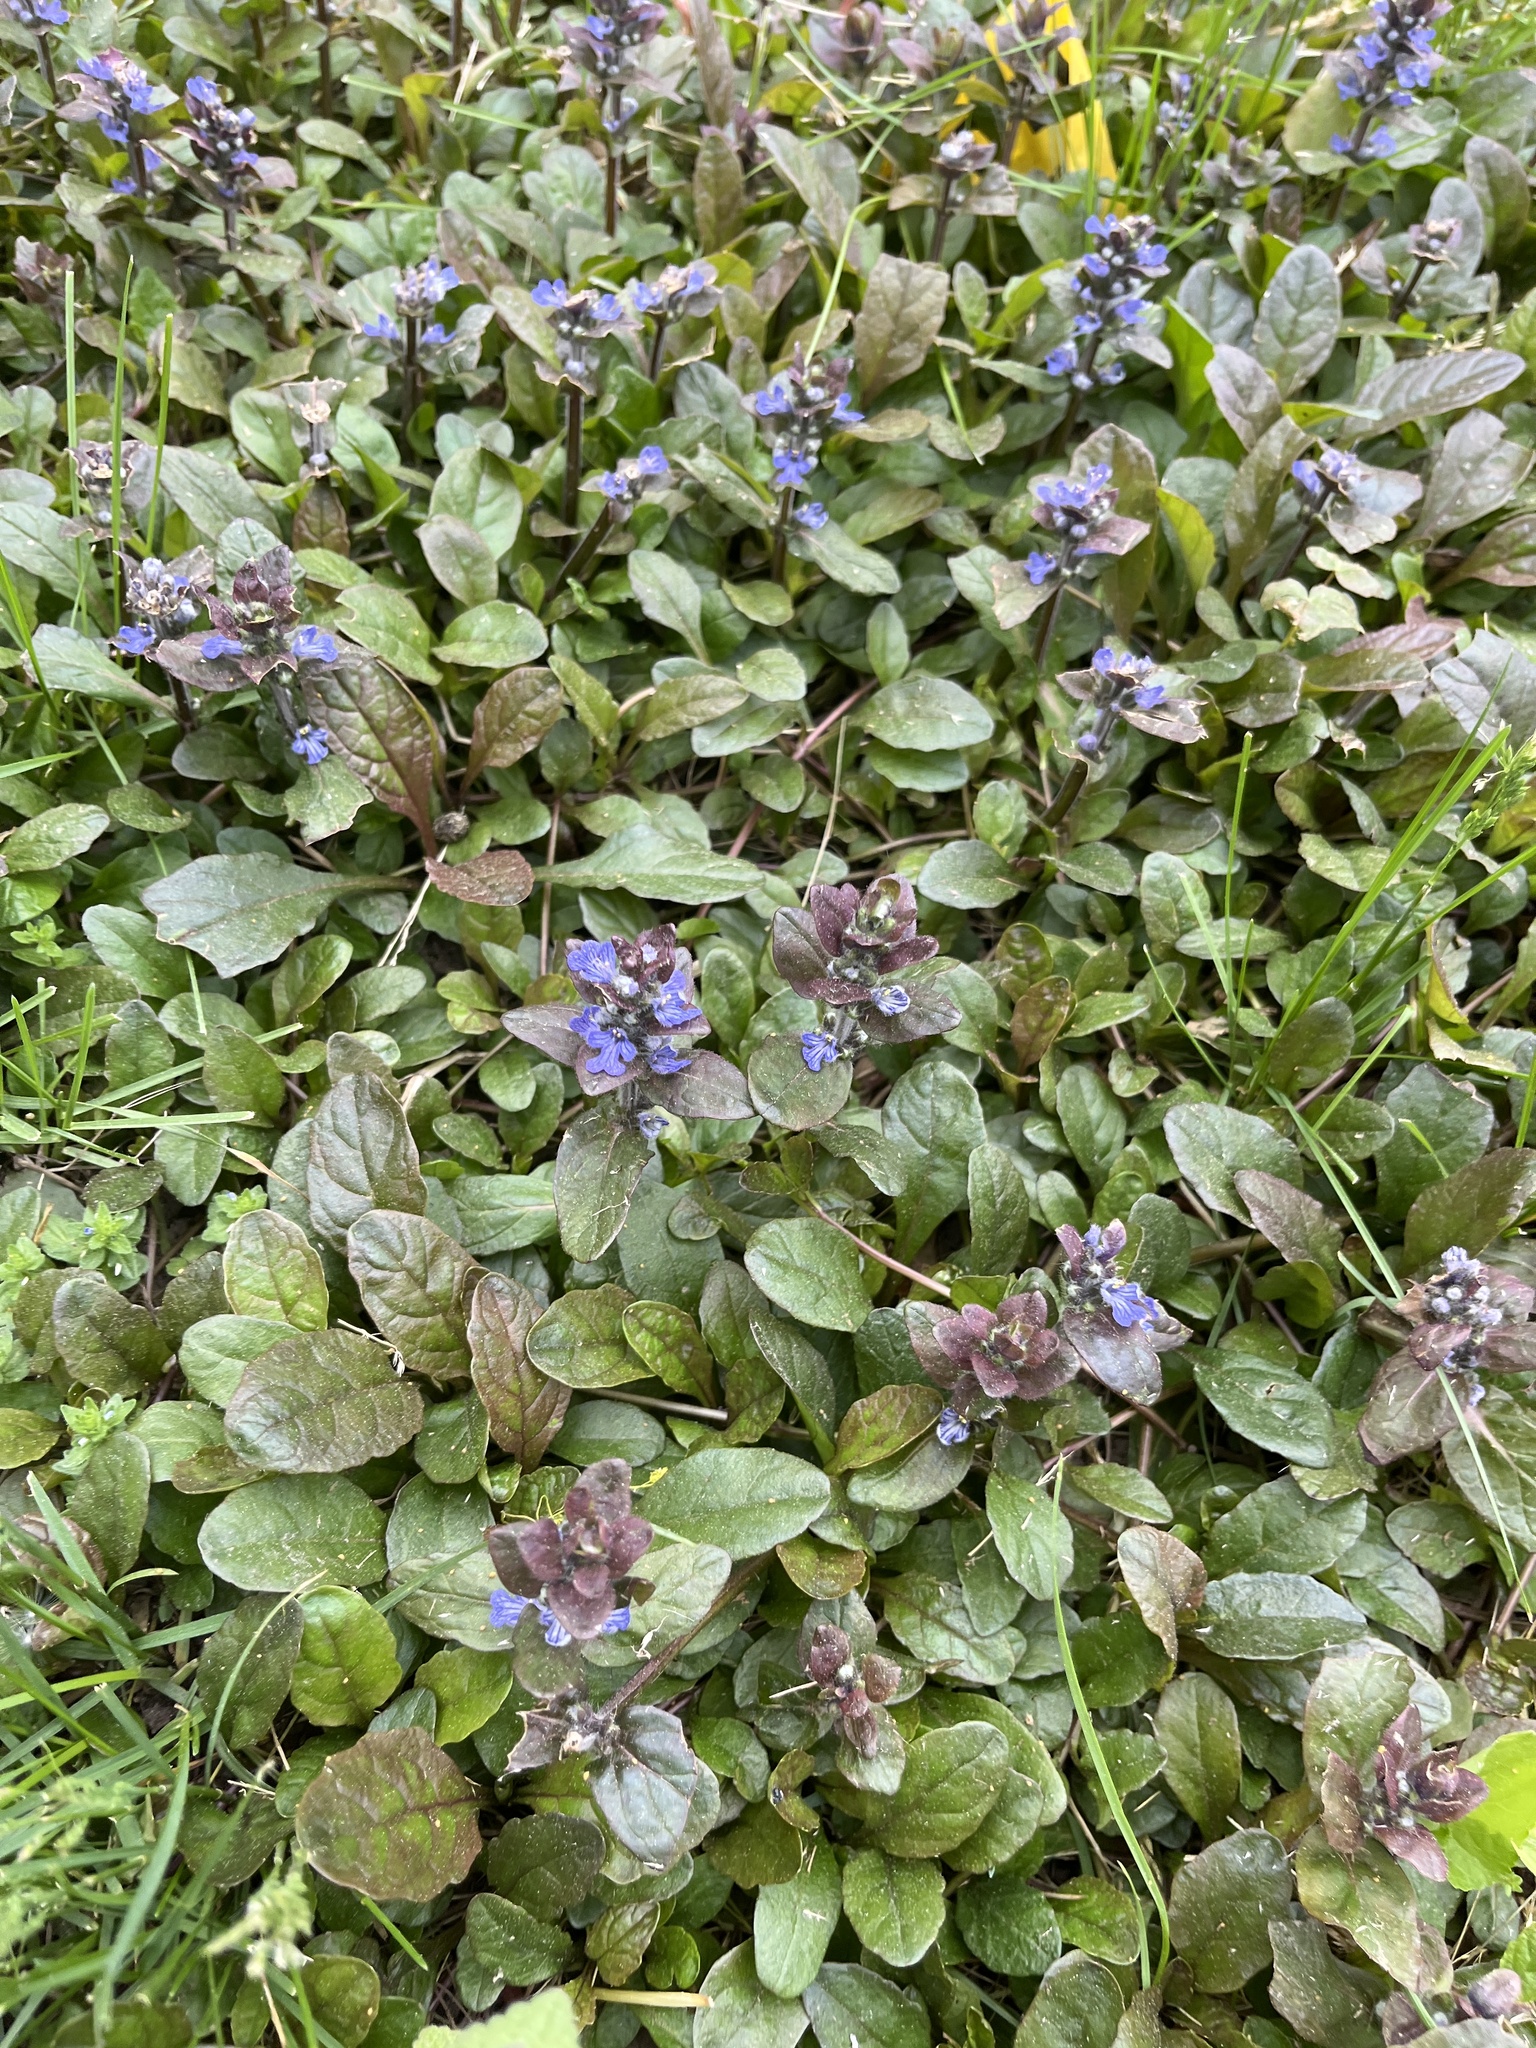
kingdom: Plantae
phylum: Tracheophyta
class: Magnoliopsida
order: Lamiales
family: Lamiaceae
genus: Ajuga
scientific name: Ajuga reptans
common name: Bugle
